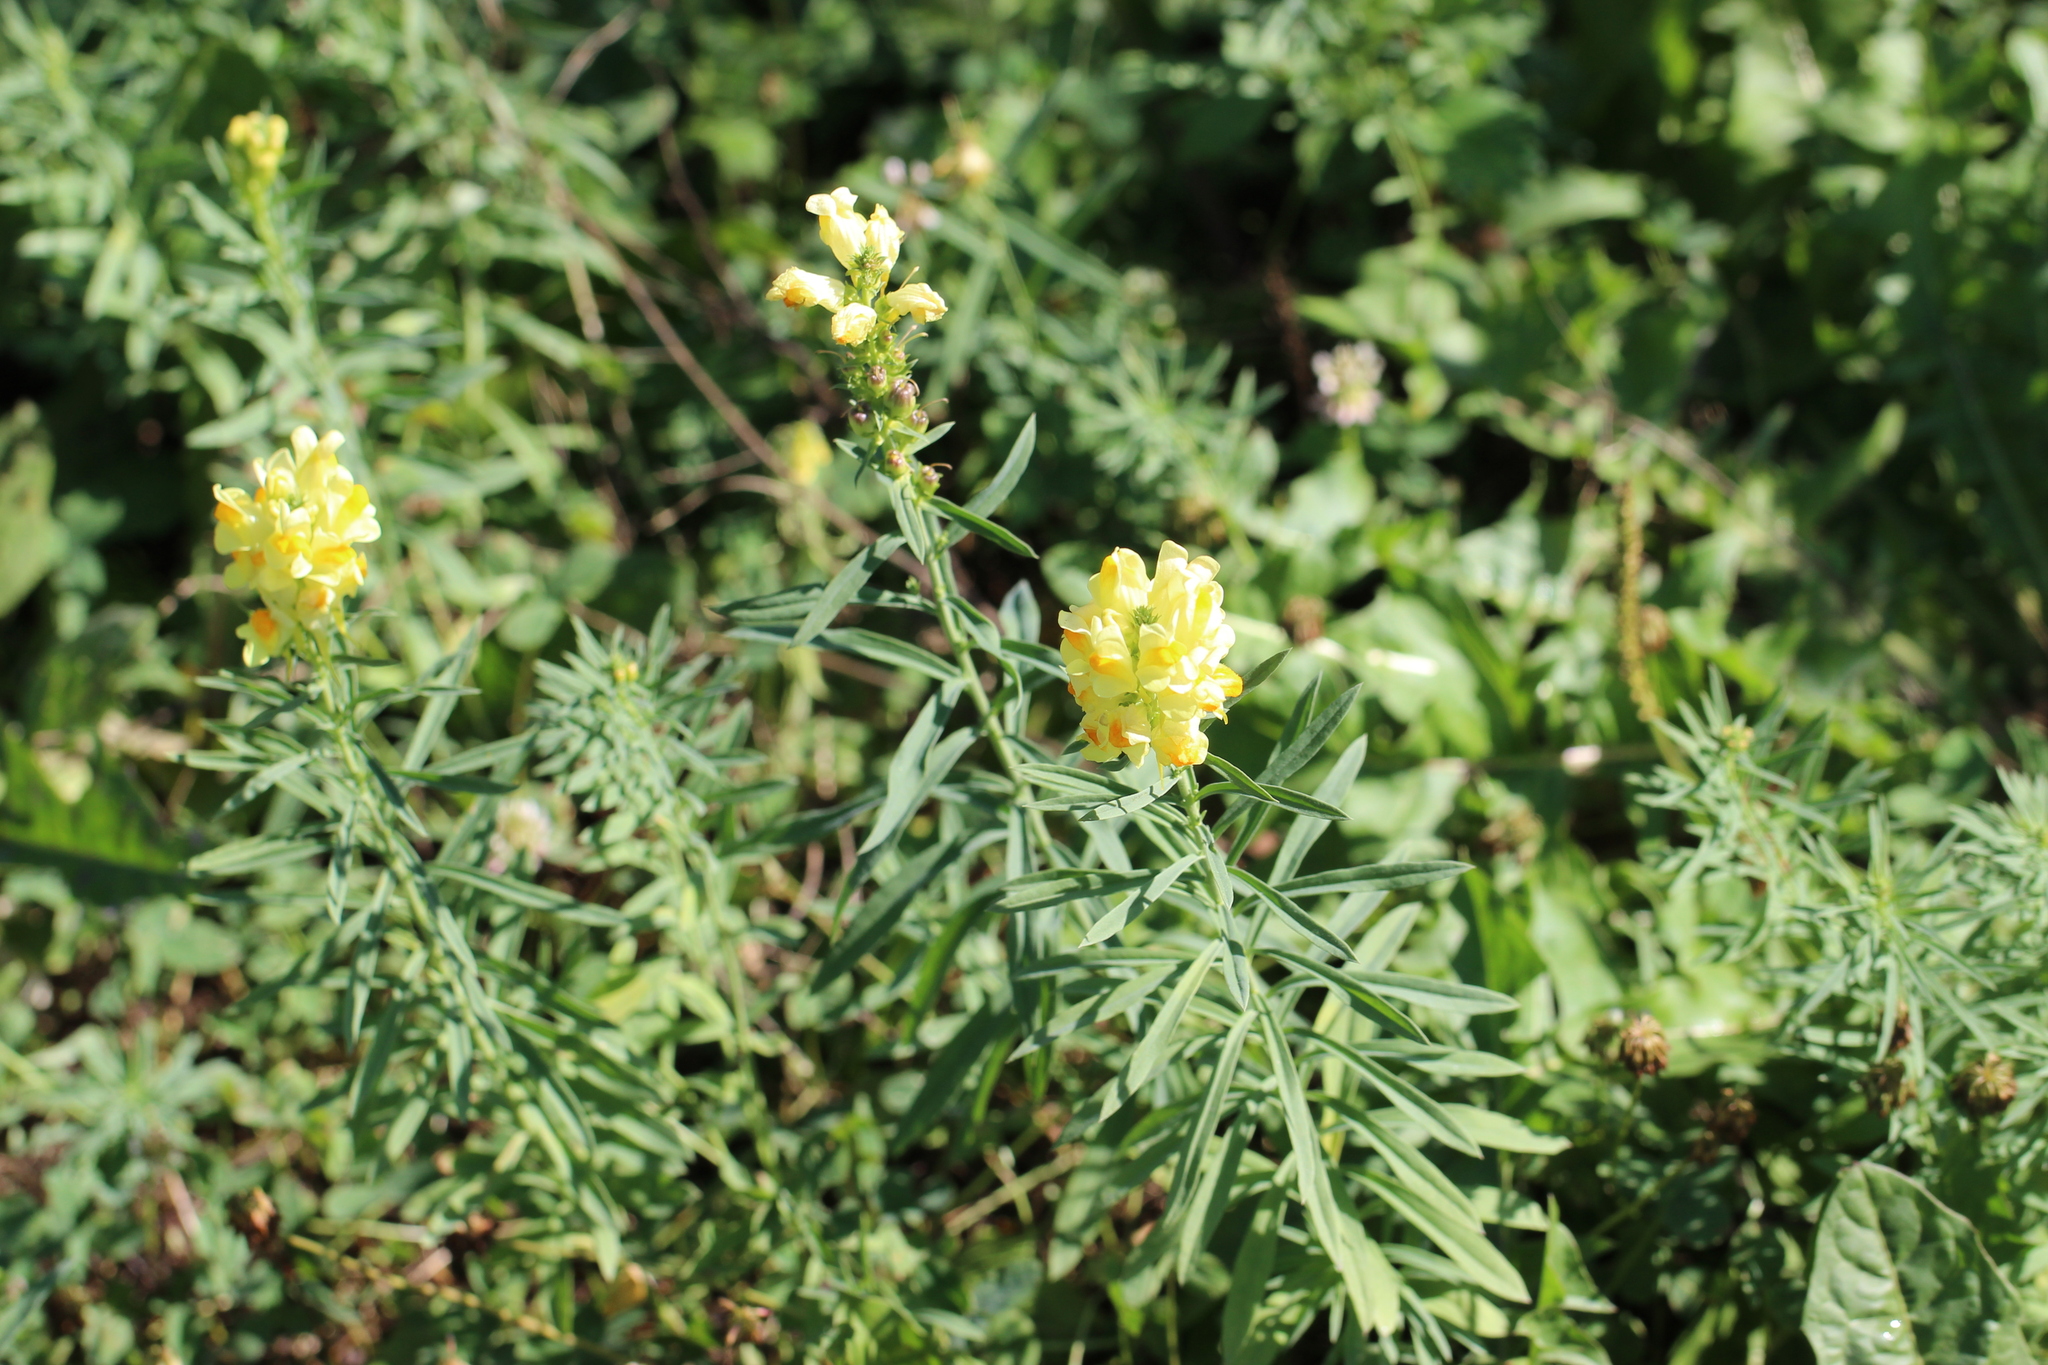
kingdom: Plantae
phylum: Tracheophyta
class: Magnoliopsida
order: Lamiales
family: Plantaginaceae
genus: Linaria
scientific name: Linaria vulgaris
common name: Butter and eggs
